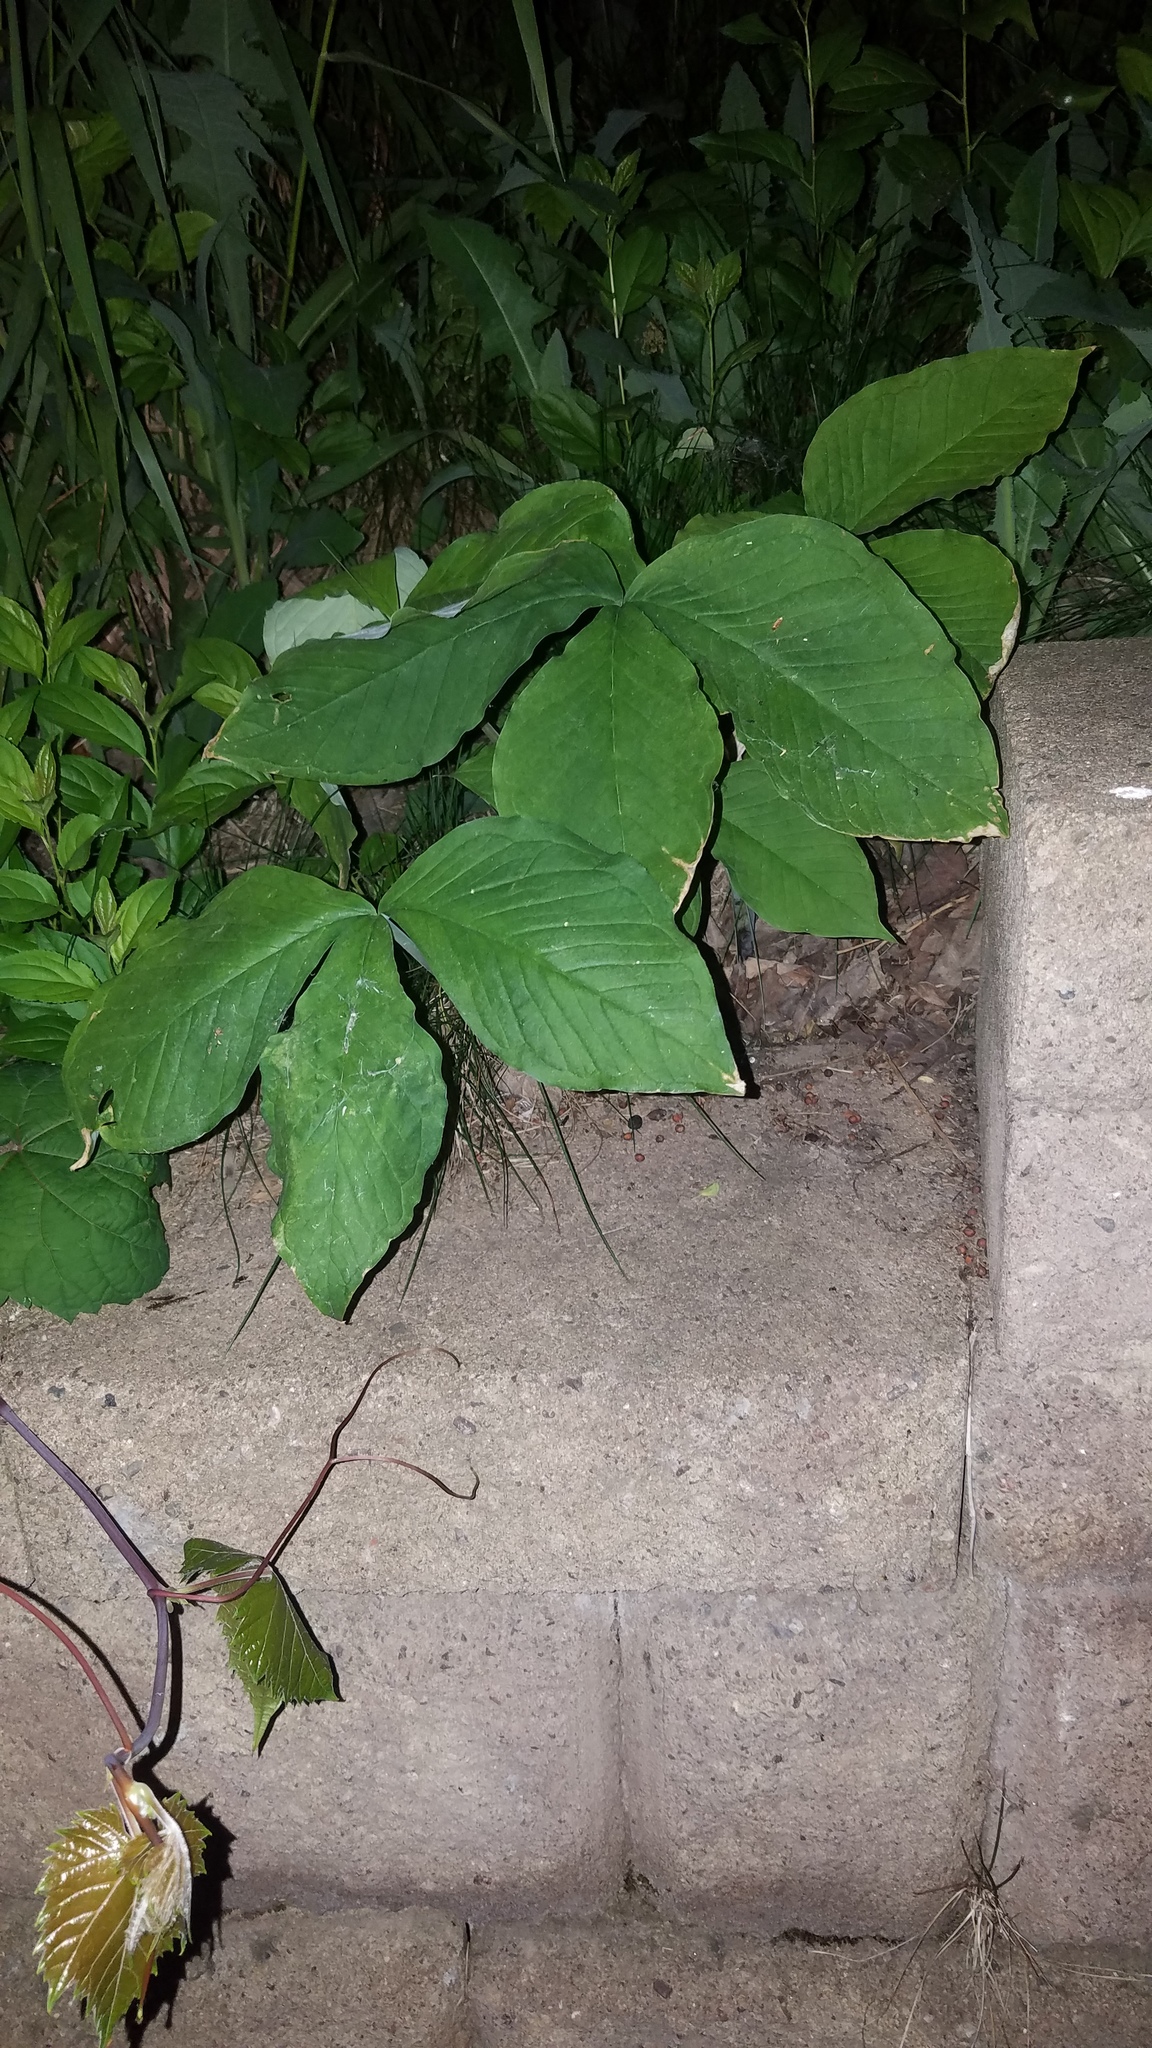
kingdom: Plantae
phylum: Tracheophyta
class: Liliopsida
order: Alismatales
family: Araceae
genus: Arisaema
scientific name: Arisaema triphyllum
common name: Jack-in-the-pulpit
